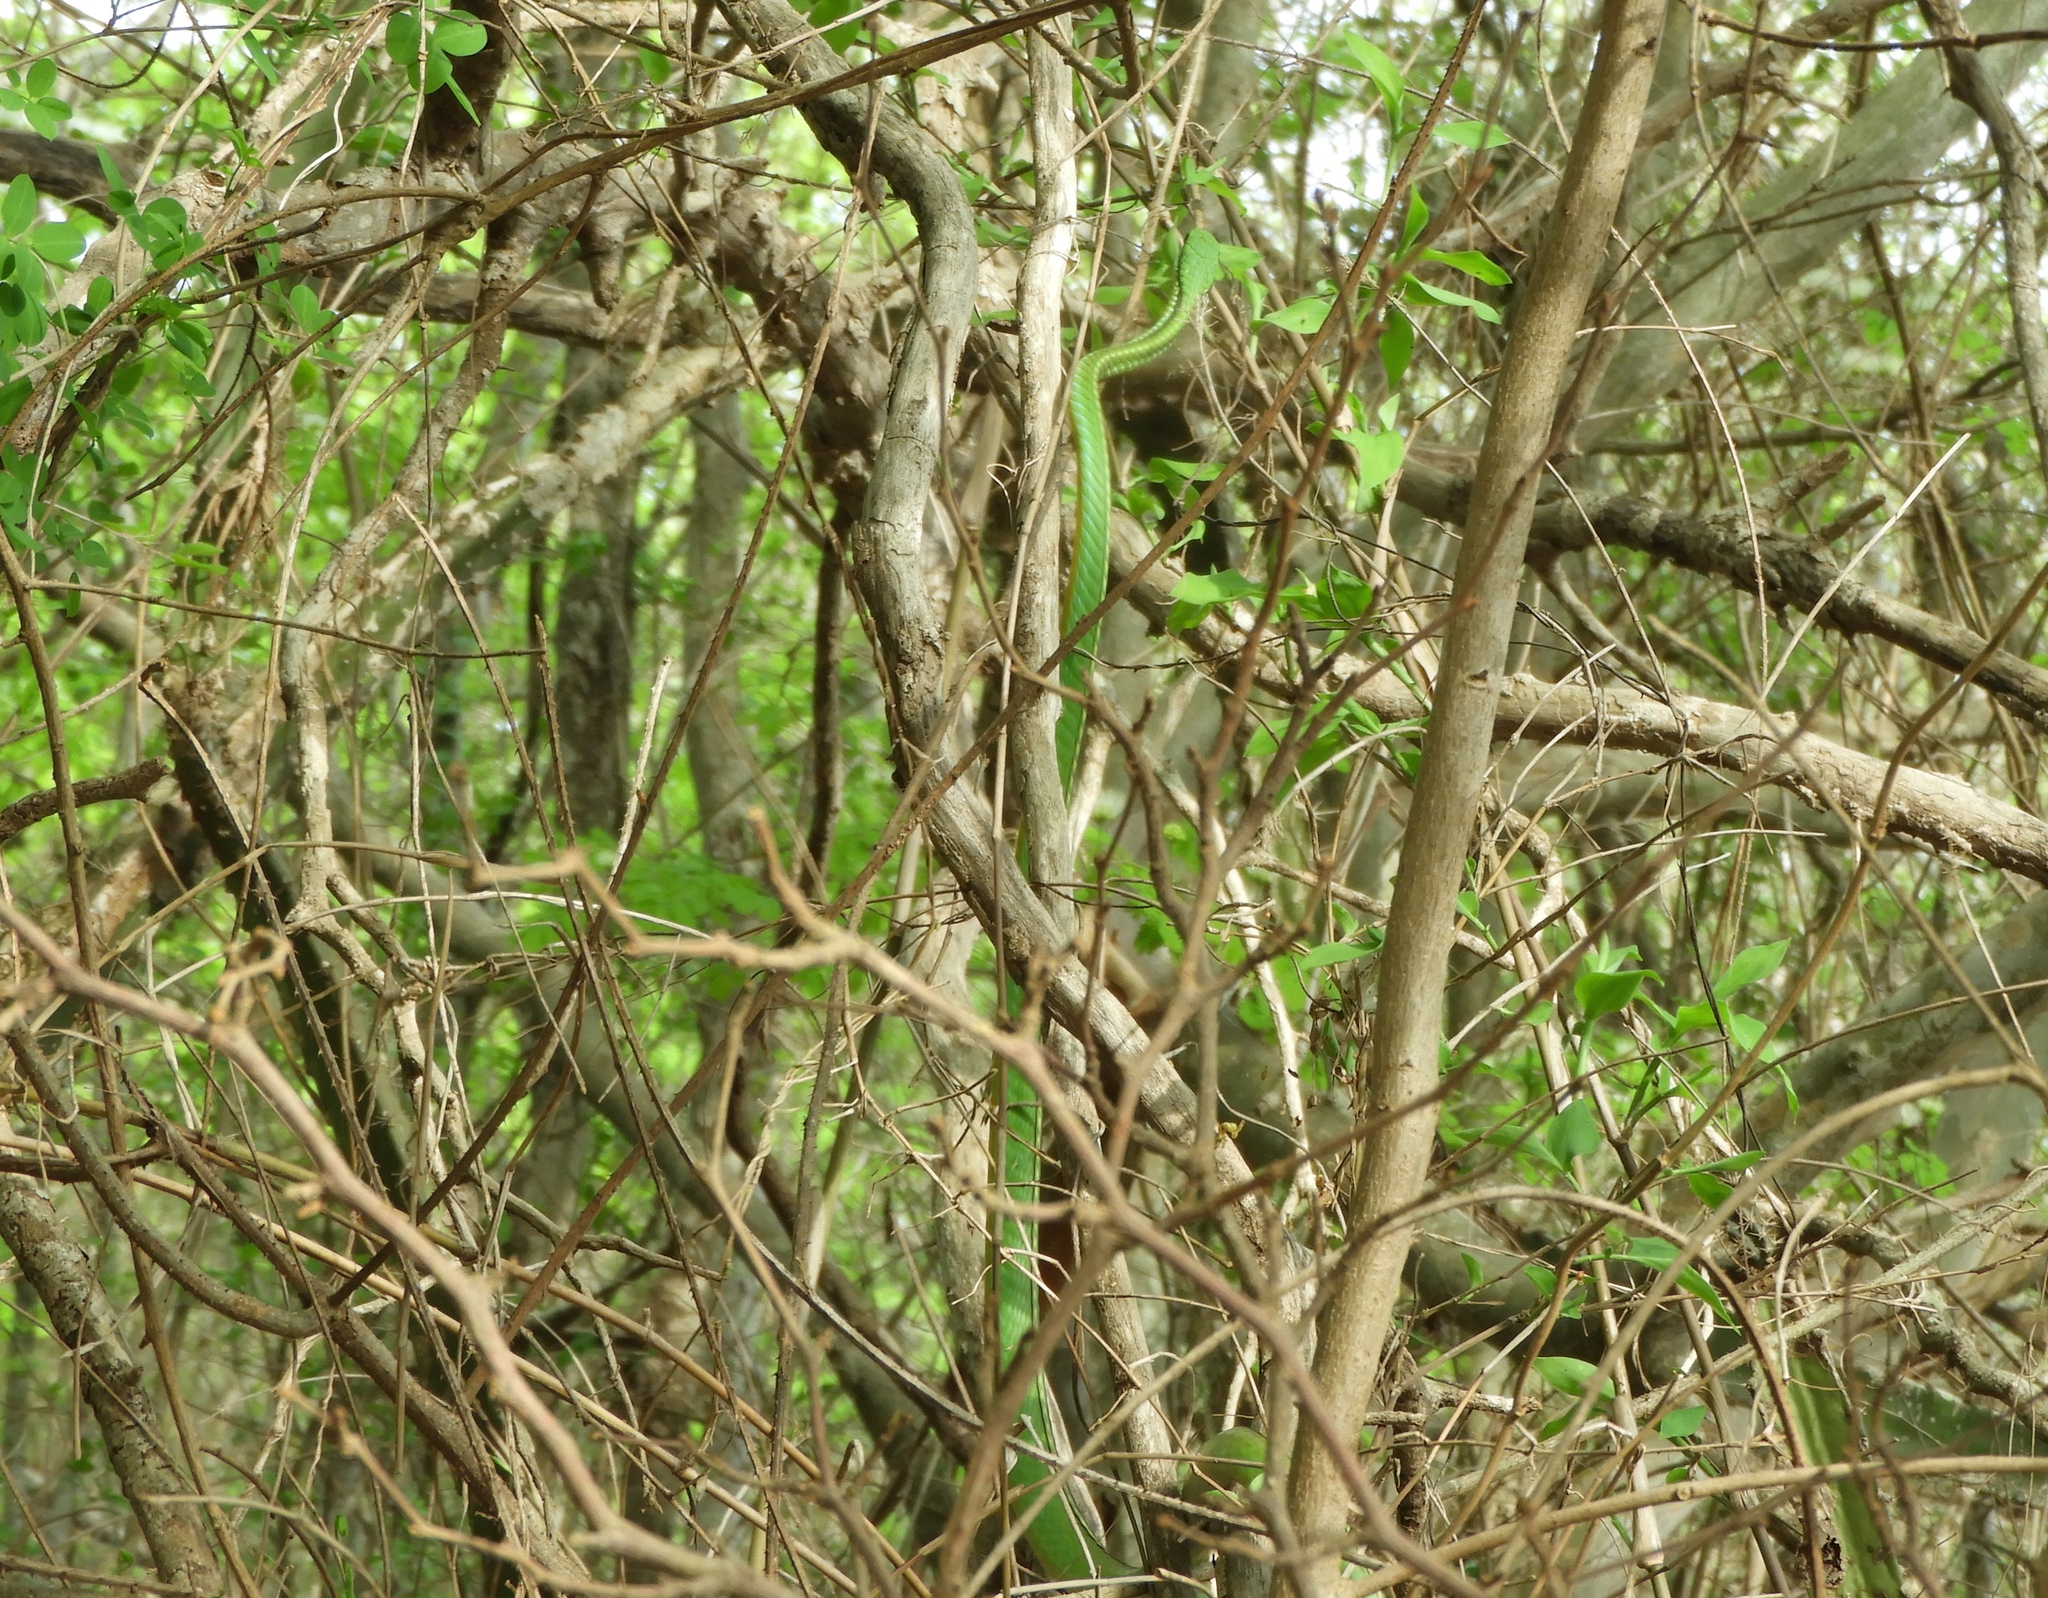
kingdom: Animalia
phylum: Chordata
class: Squamata
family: Colubridae
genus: Leptophis
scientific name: Leptophis diplotropis
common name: Pacific coast parrot snake
